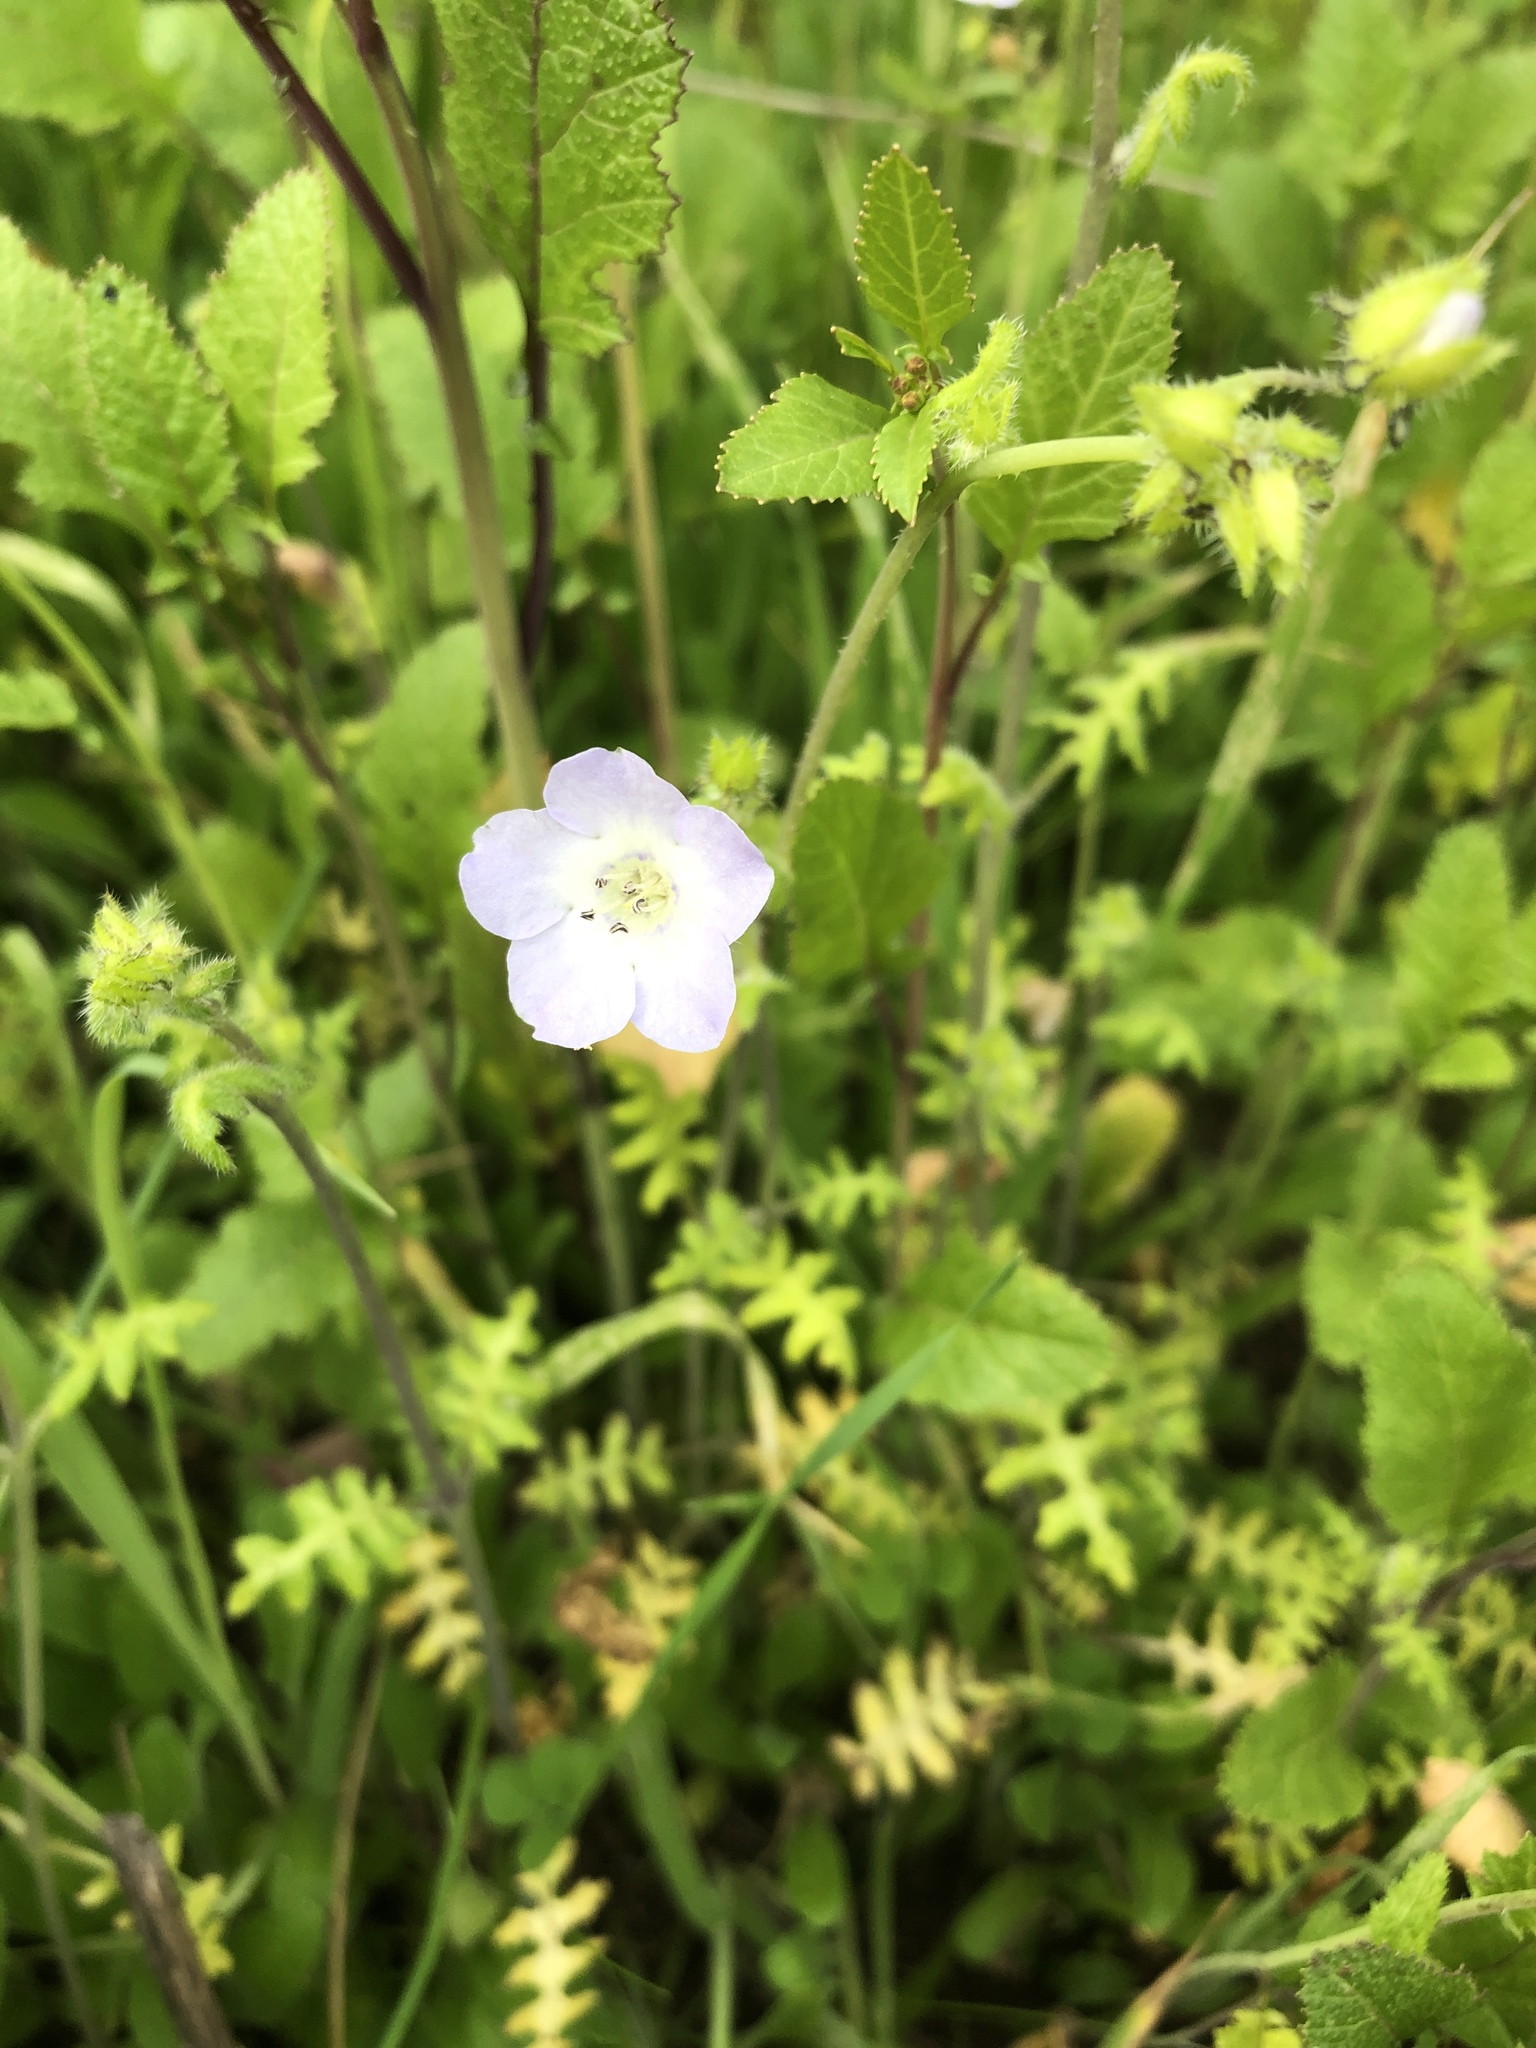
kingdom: Plantae
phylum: Tracheophyta
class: Magnoliopsida
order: Boraginales
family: Hydrophyllaceae
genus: Pholistoma
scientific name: Pholistoma auritum
